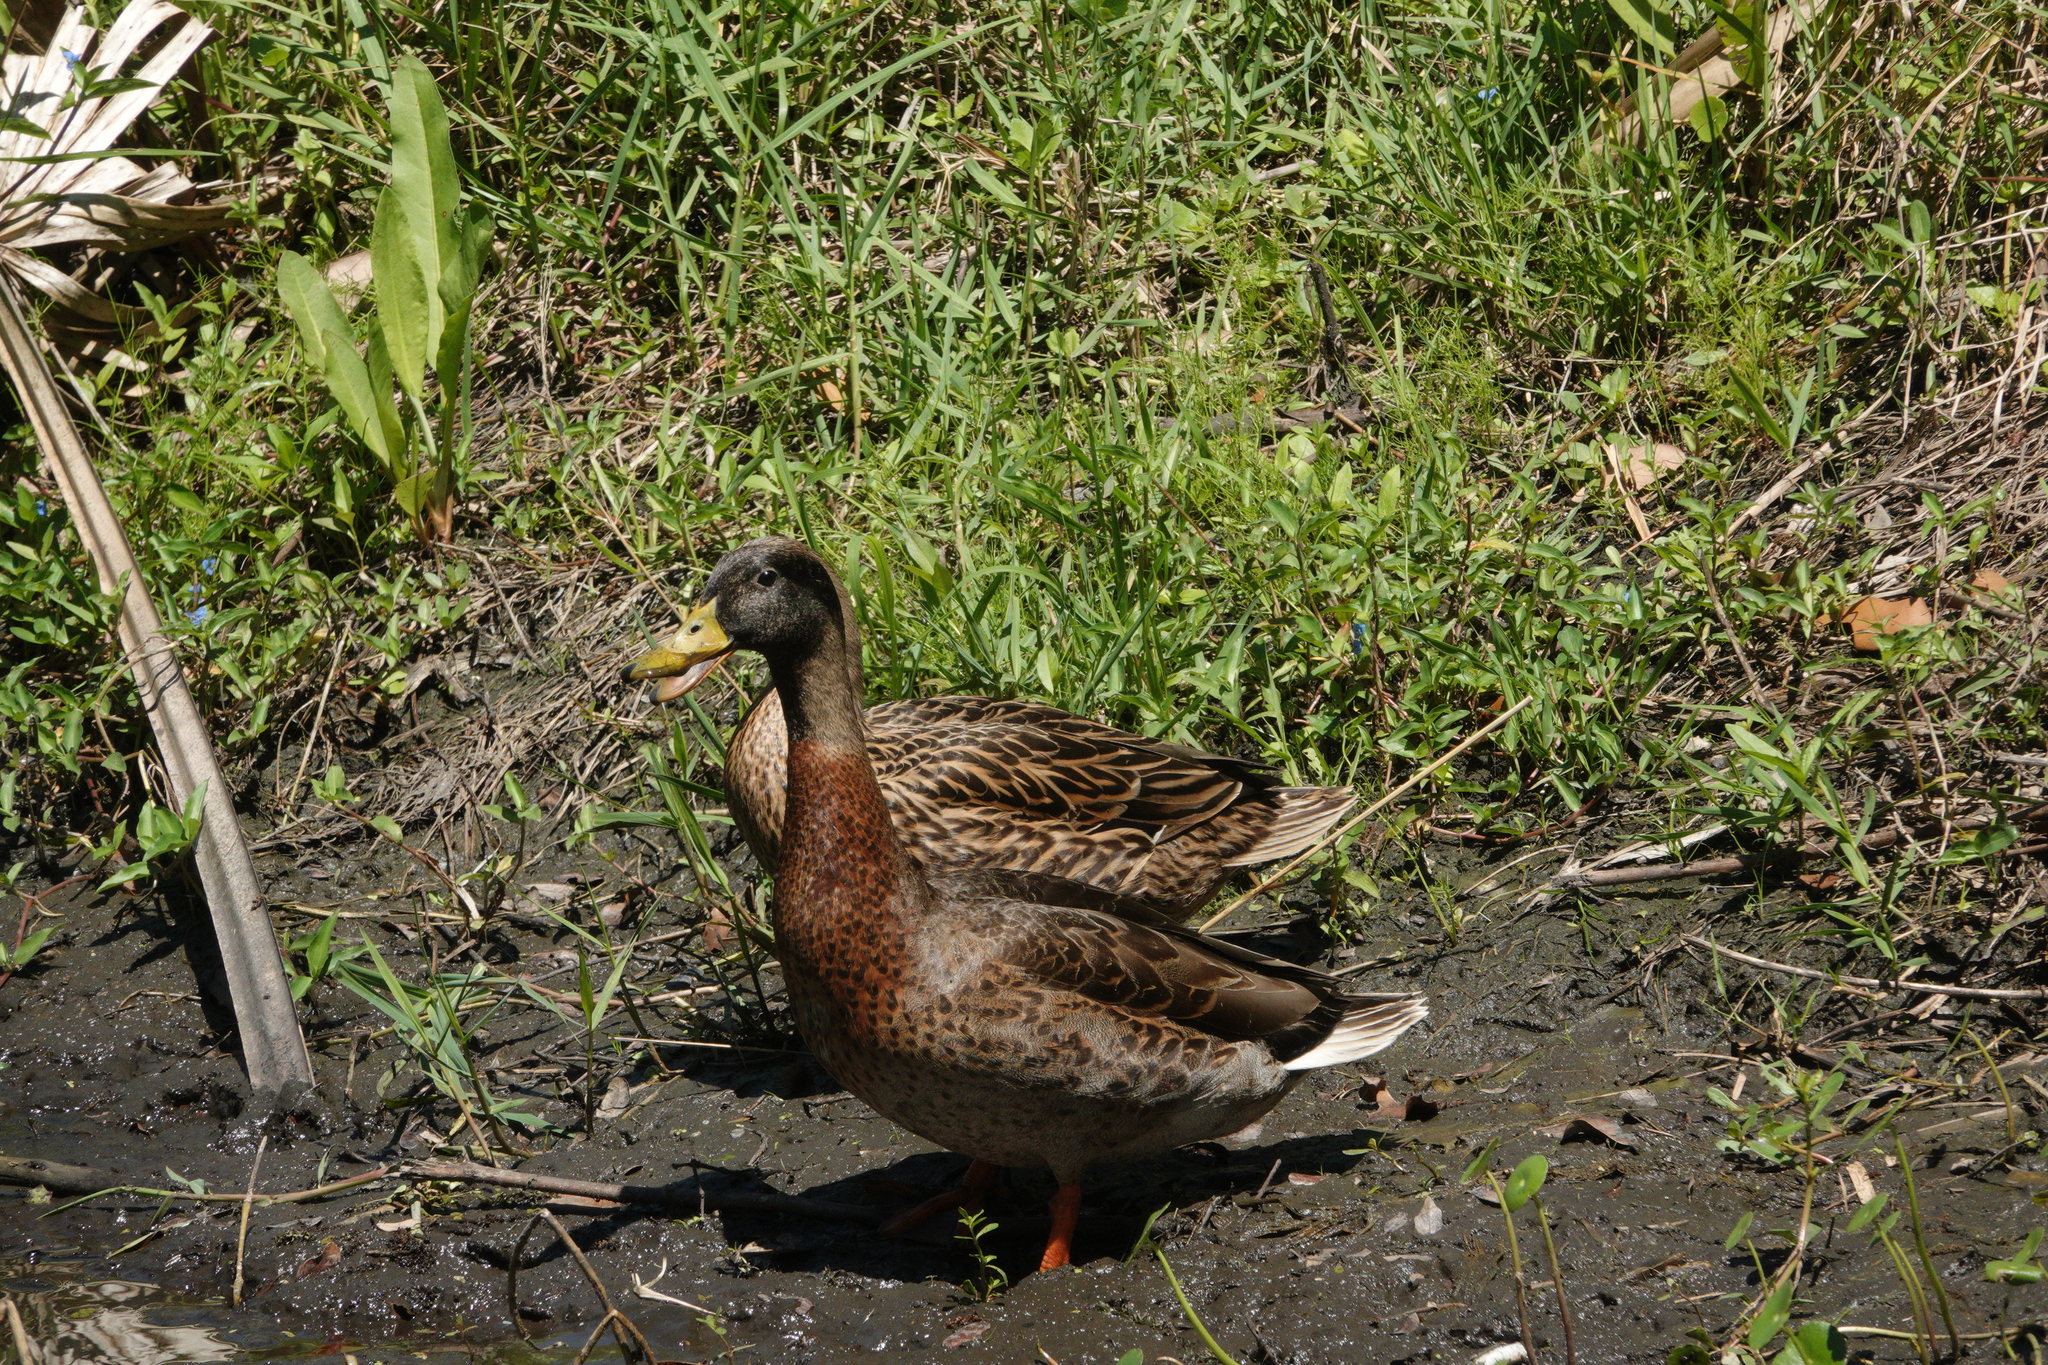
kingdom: Animalia
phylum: Chordata
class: Aves
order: Anseriformes
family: Anatidae
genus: Anas
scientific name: Anas
